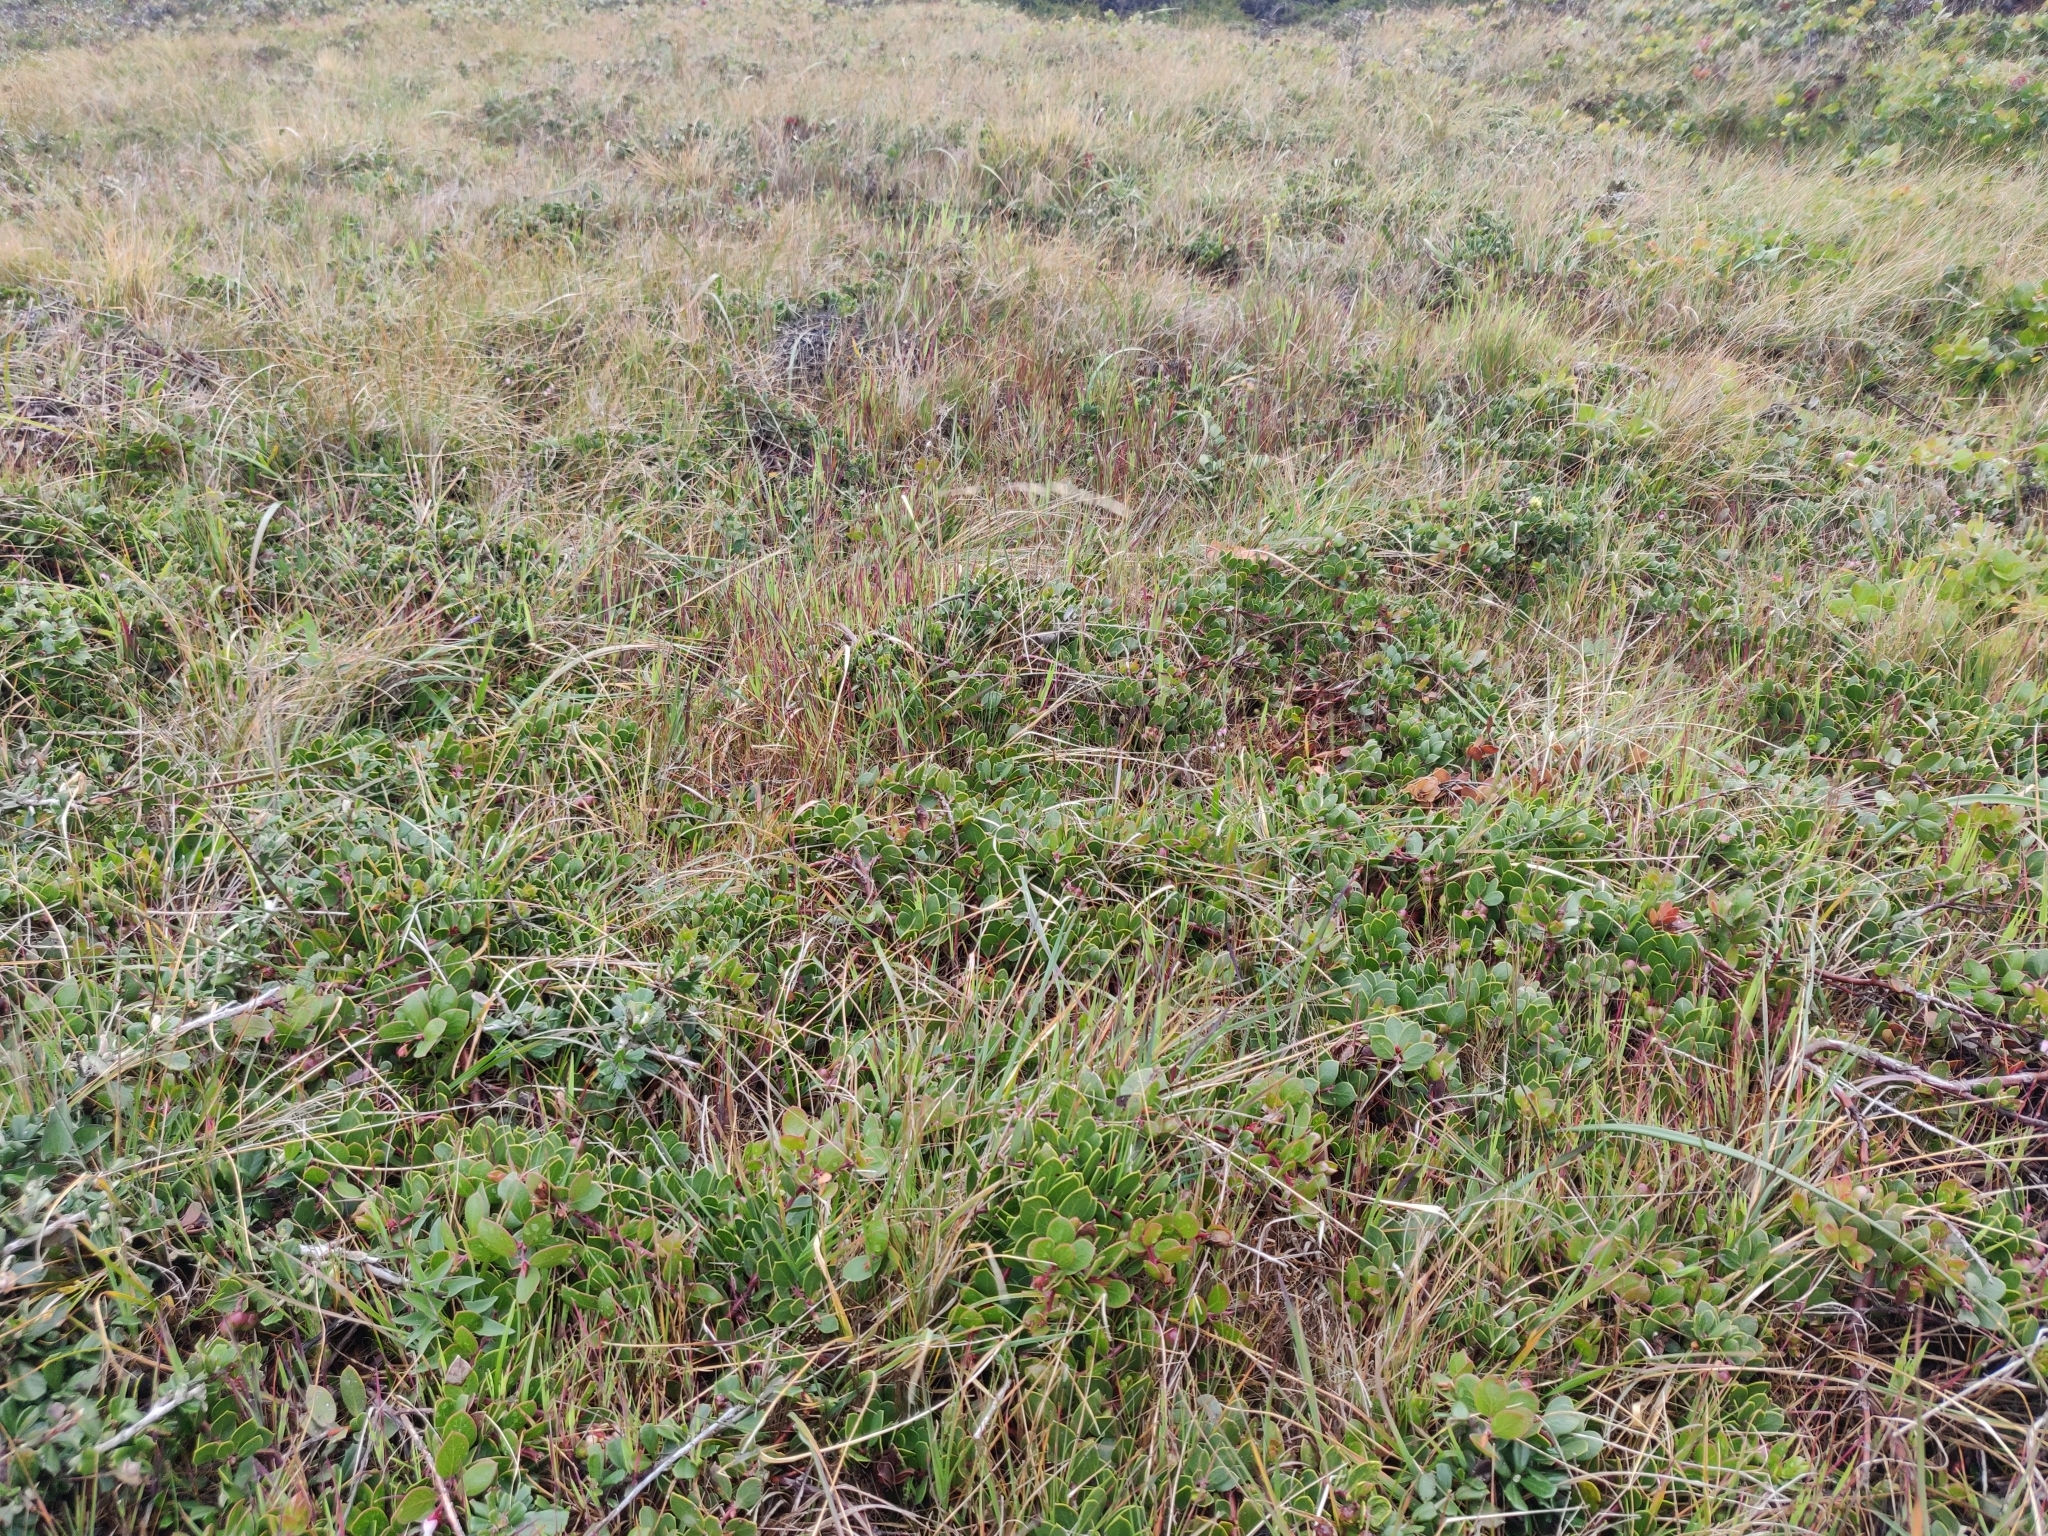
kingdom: Plantae
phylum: Tracheophyta
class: Magnoliopsida
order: Ericales
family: Ericaceae
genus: Arctostaphylos
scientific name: Arctostaphylos hookeri
